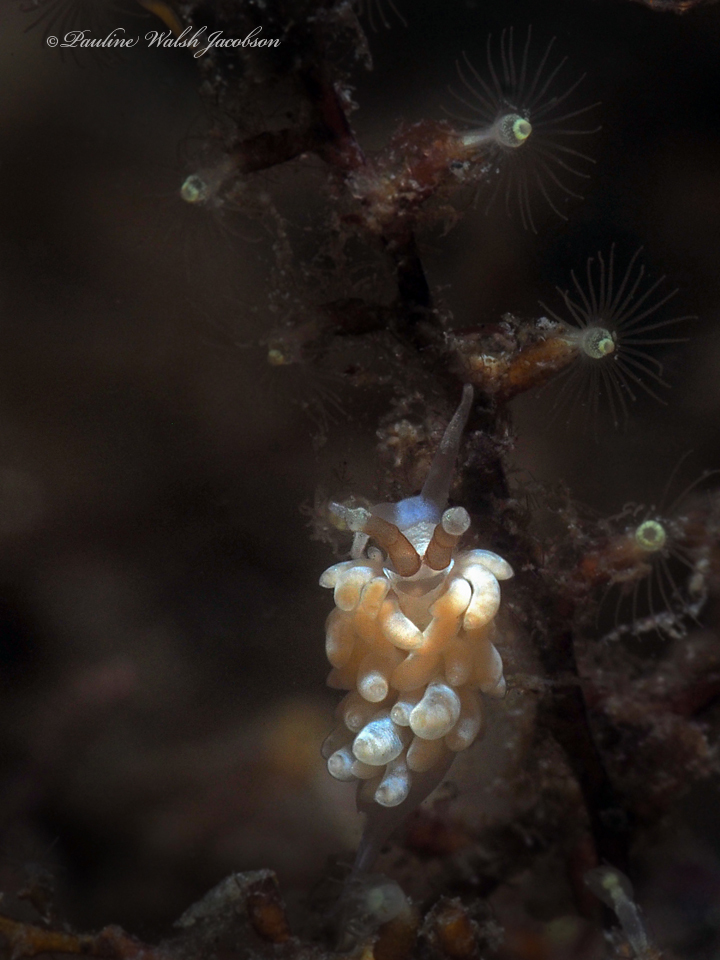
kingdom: Animalia
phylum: Mollusca
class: Gastropoda
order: Nudibranchia
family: Facelinidae
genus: Favorinus
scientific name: Favorinus branchialis
